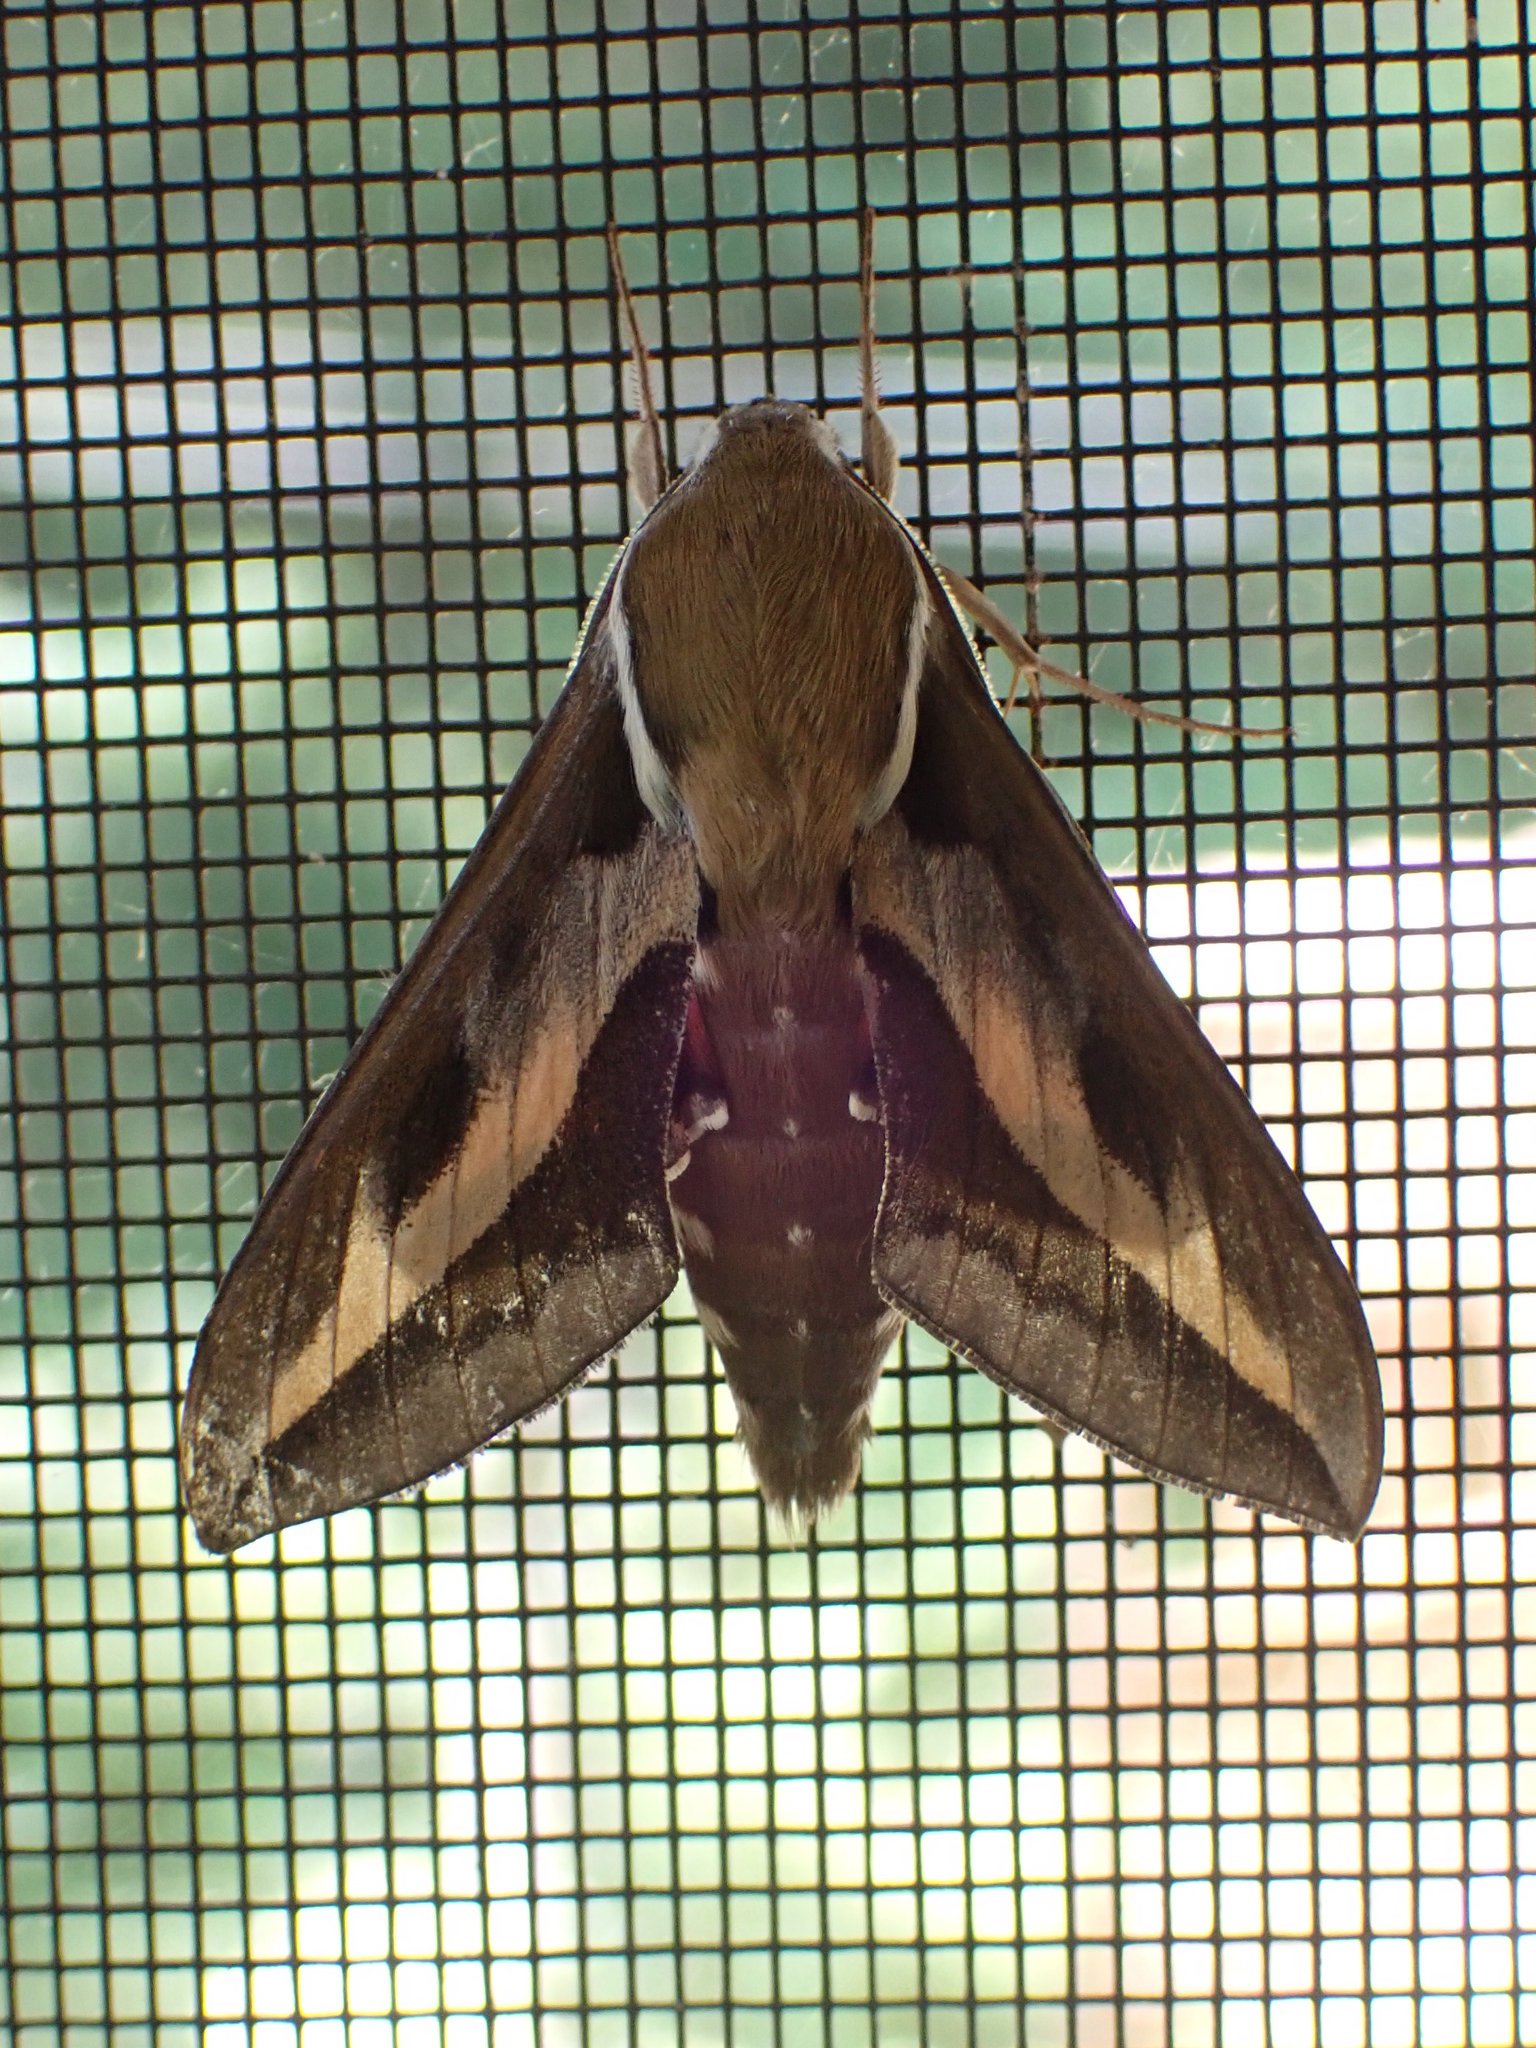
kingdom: Animalia
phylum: Arthropoda
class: Insecta
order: Lepidoptera
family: Sphingidae
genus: Hyles
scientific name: Hyles gallii
